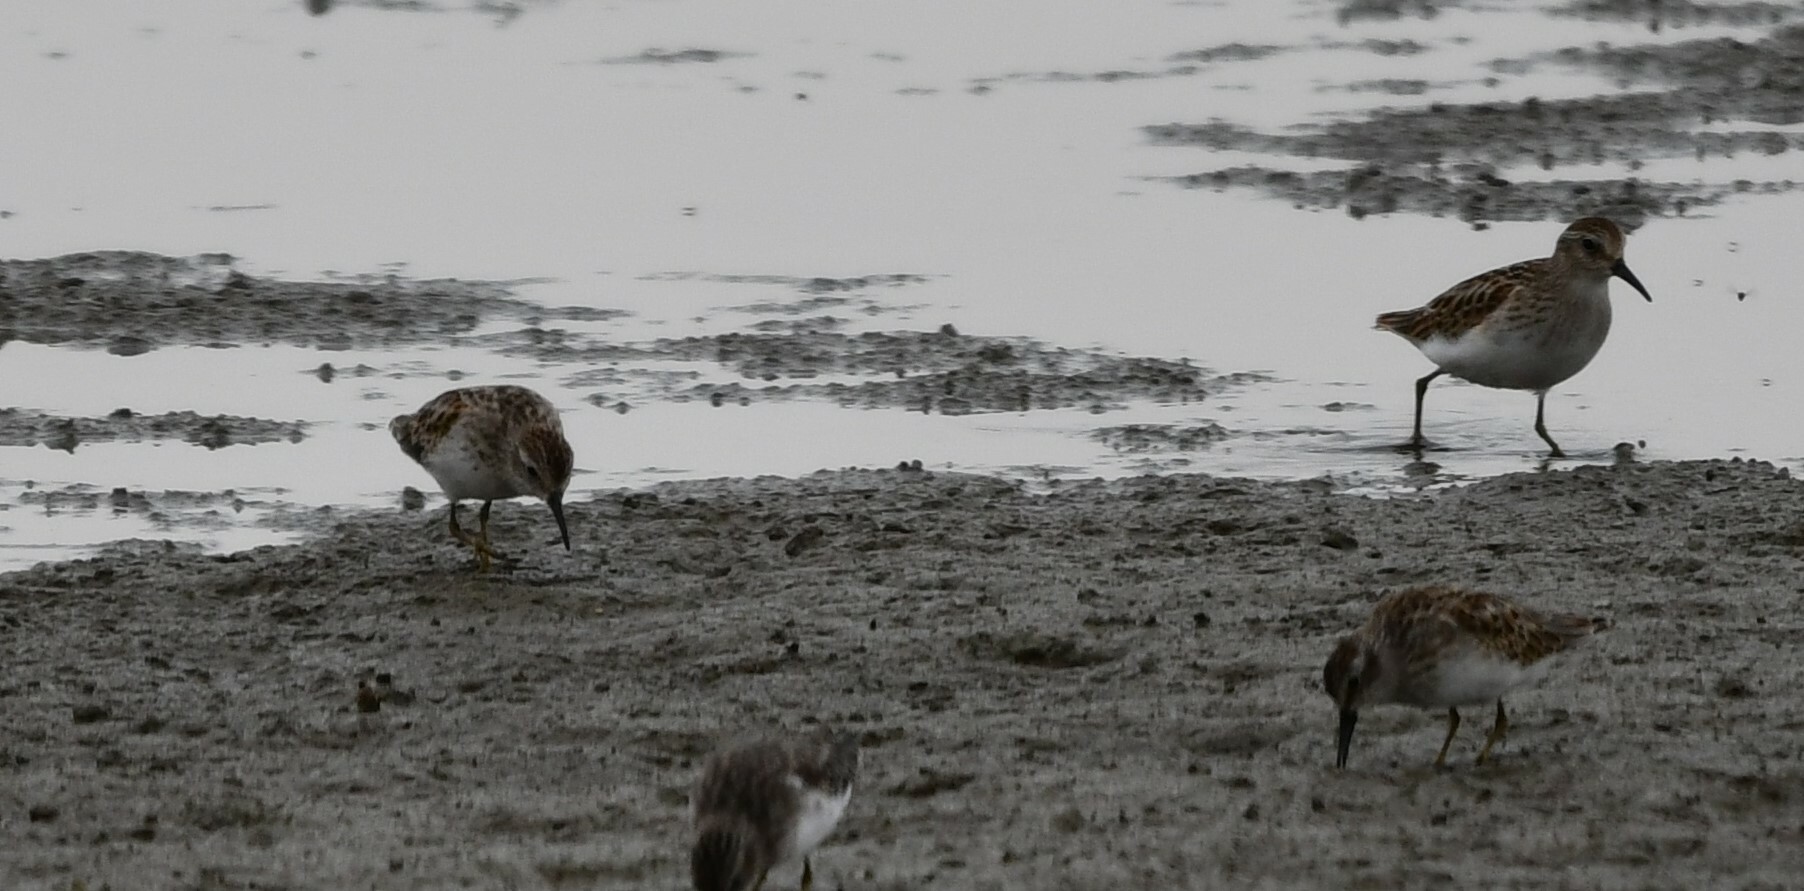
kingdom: Animalia
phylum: Chordata
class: Aves
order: Charadriiformes
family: Scolopacidae
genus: Calidris
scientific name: Calidris minutilla
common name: Least sandpiper
